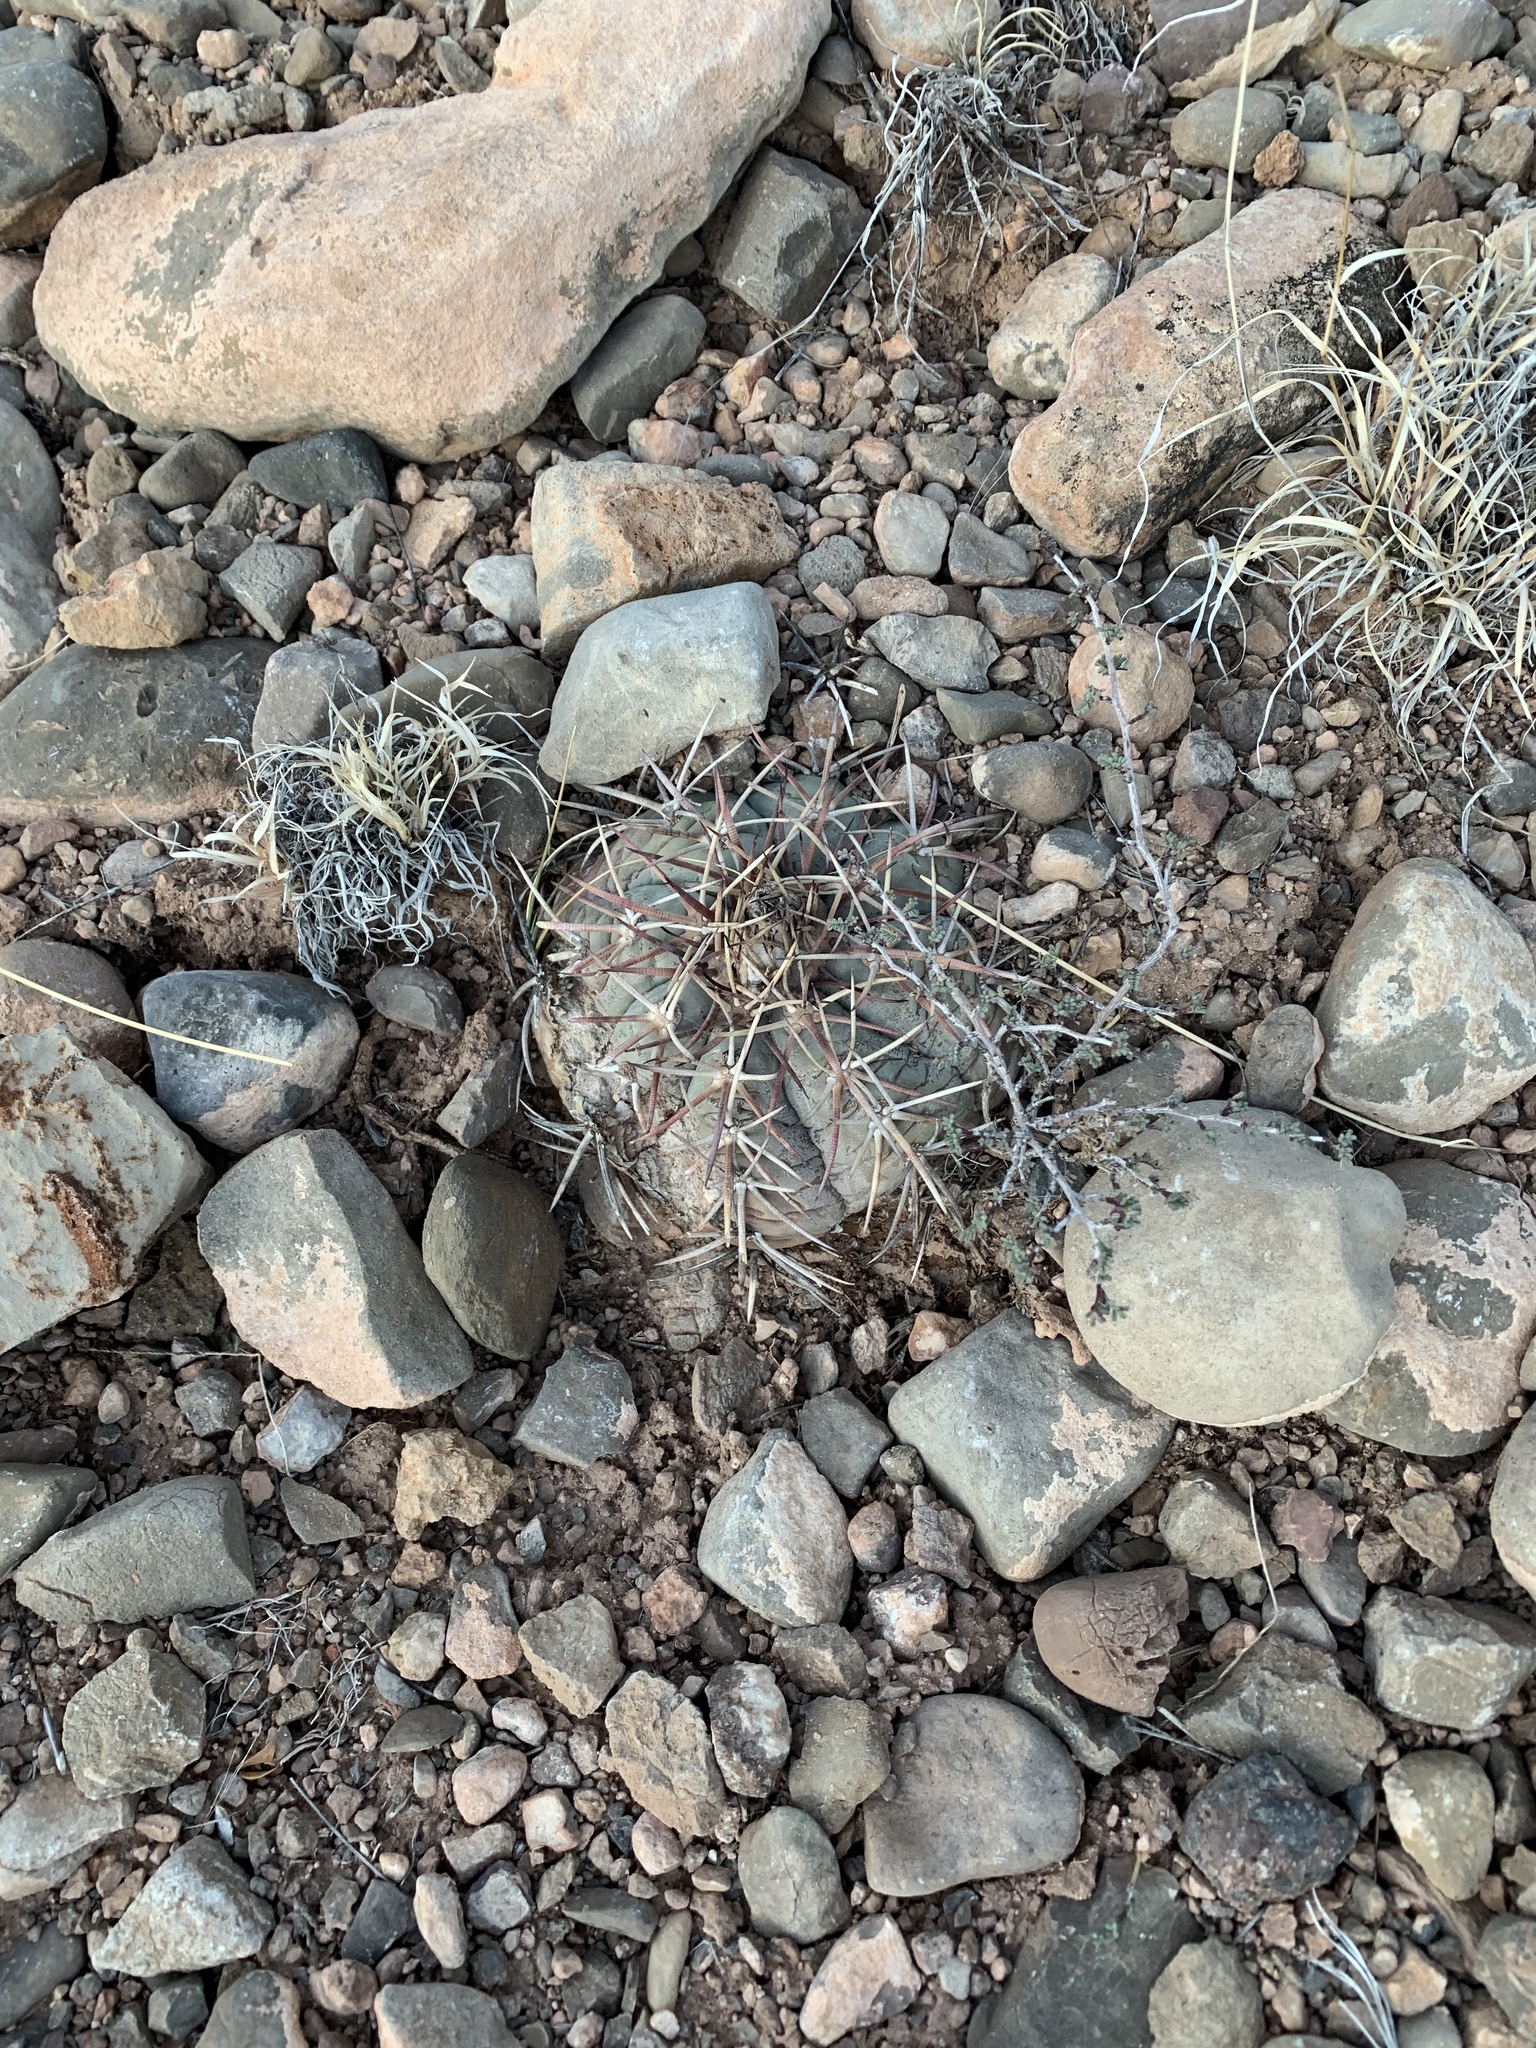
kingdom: Plantae
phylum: Tracheophyta
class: Magnoliopsida
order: Caryophyllales
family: Cactaceae
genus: Echinocactus
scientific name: Echinocactus horizonthalonius
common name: Devilshead
